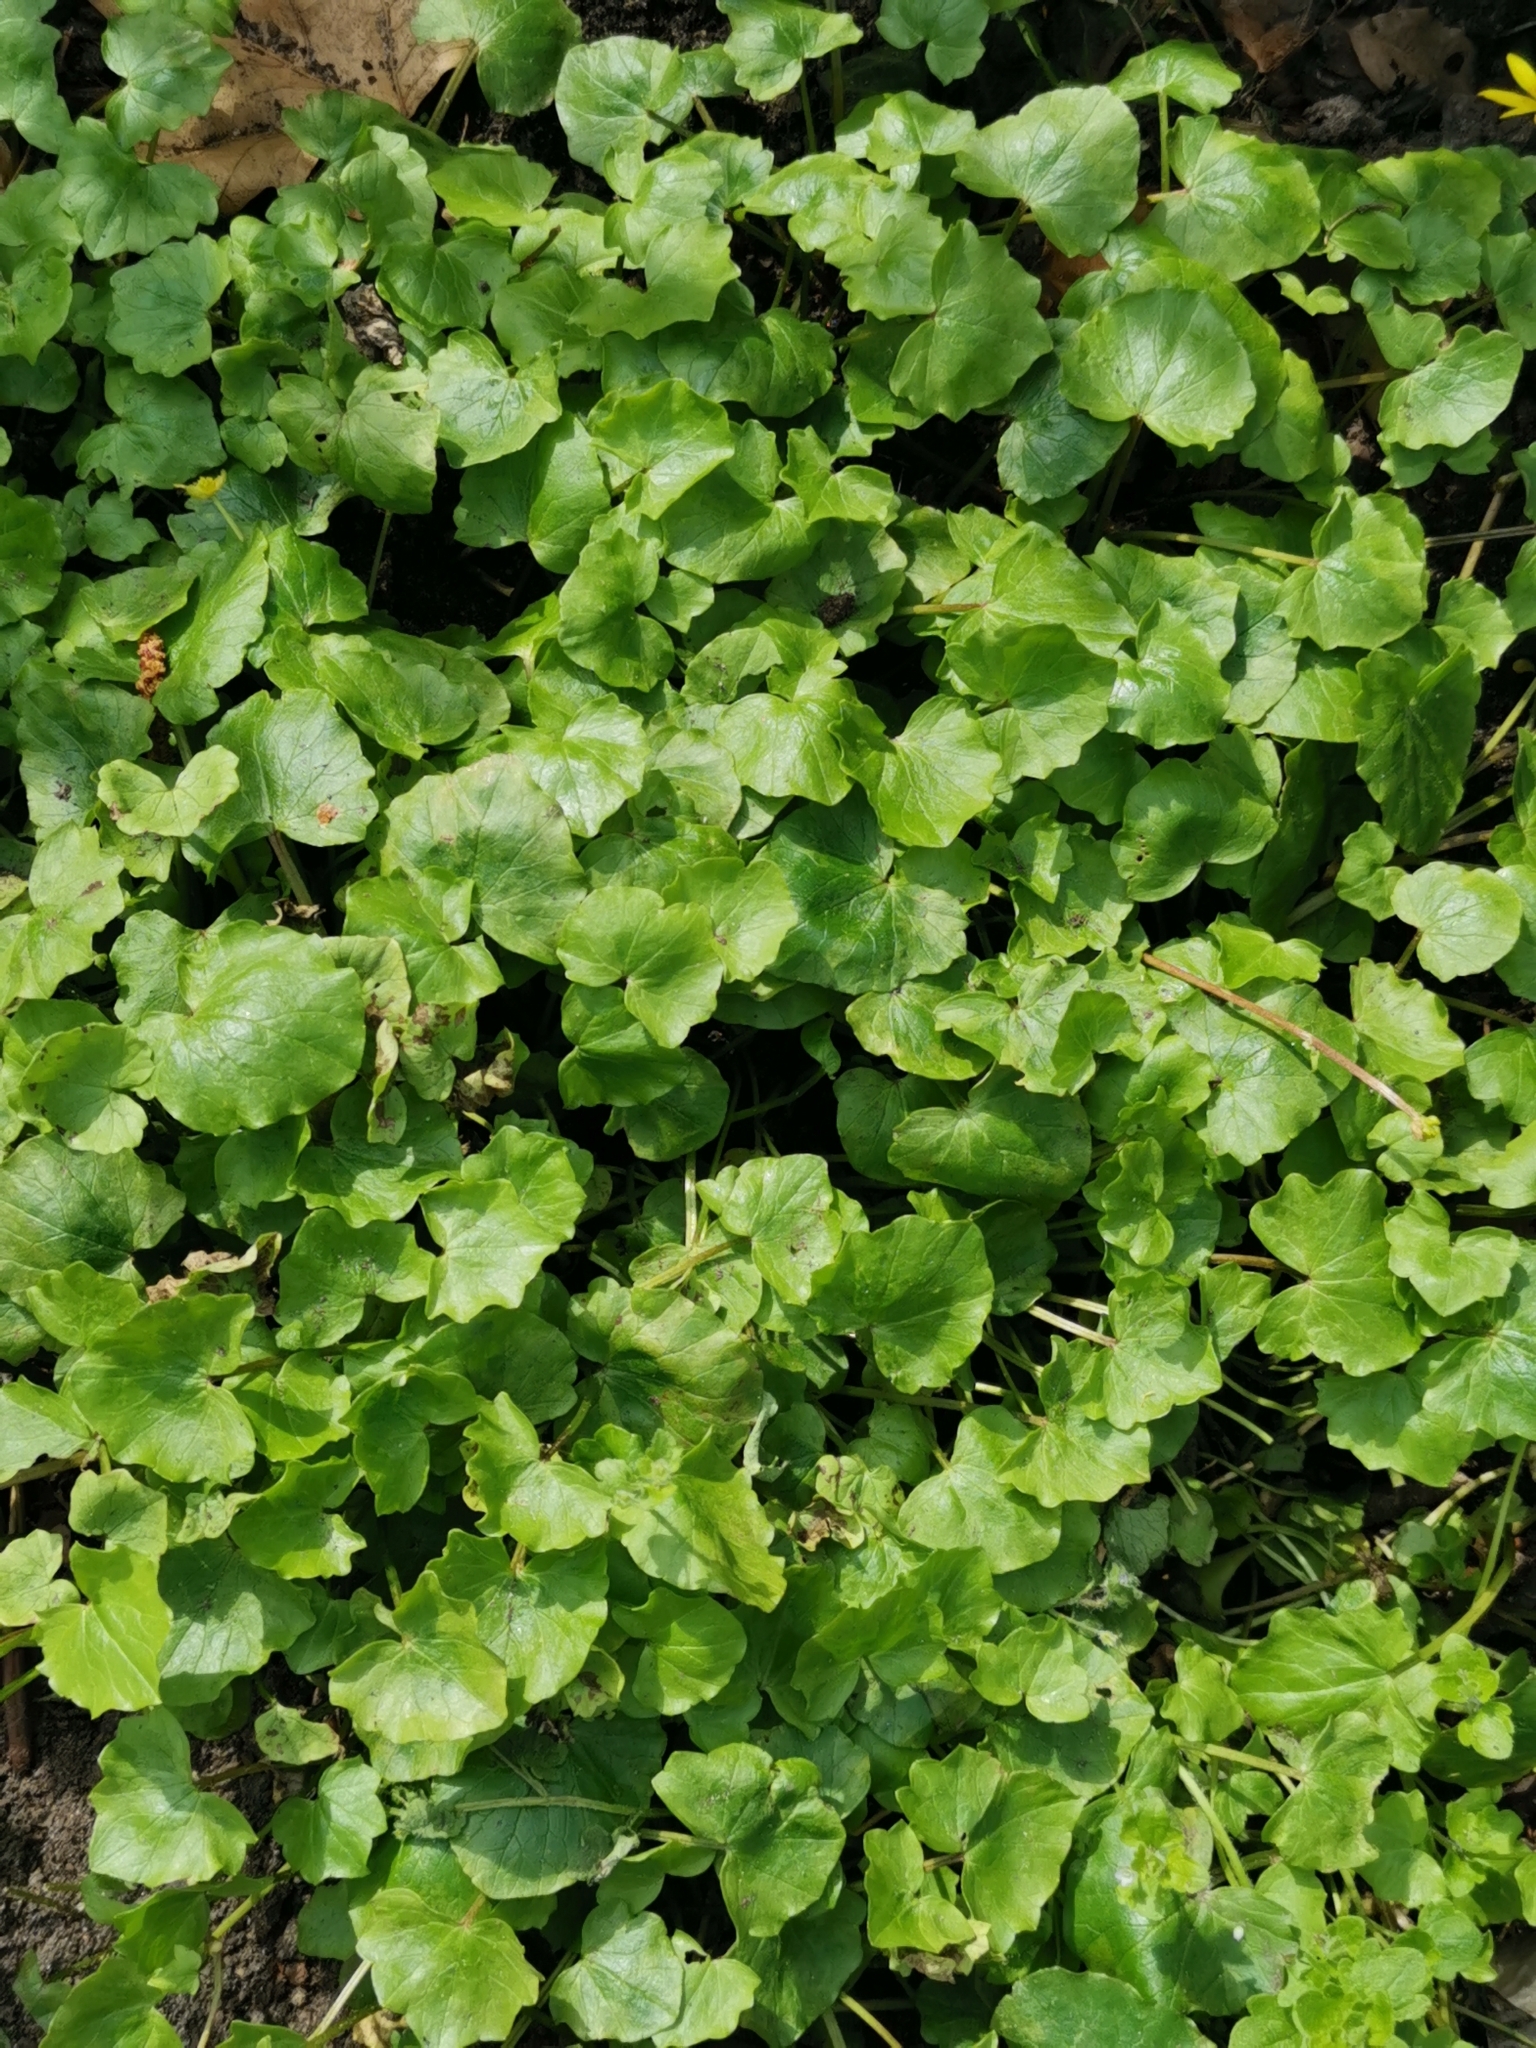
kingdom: Plantae
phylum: Tracheophyta
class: Magnoliopsida
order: Ranunculales
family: Ranunculaceae
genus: Ficaria
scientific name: Ficaria verna
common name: Lesser celandine
